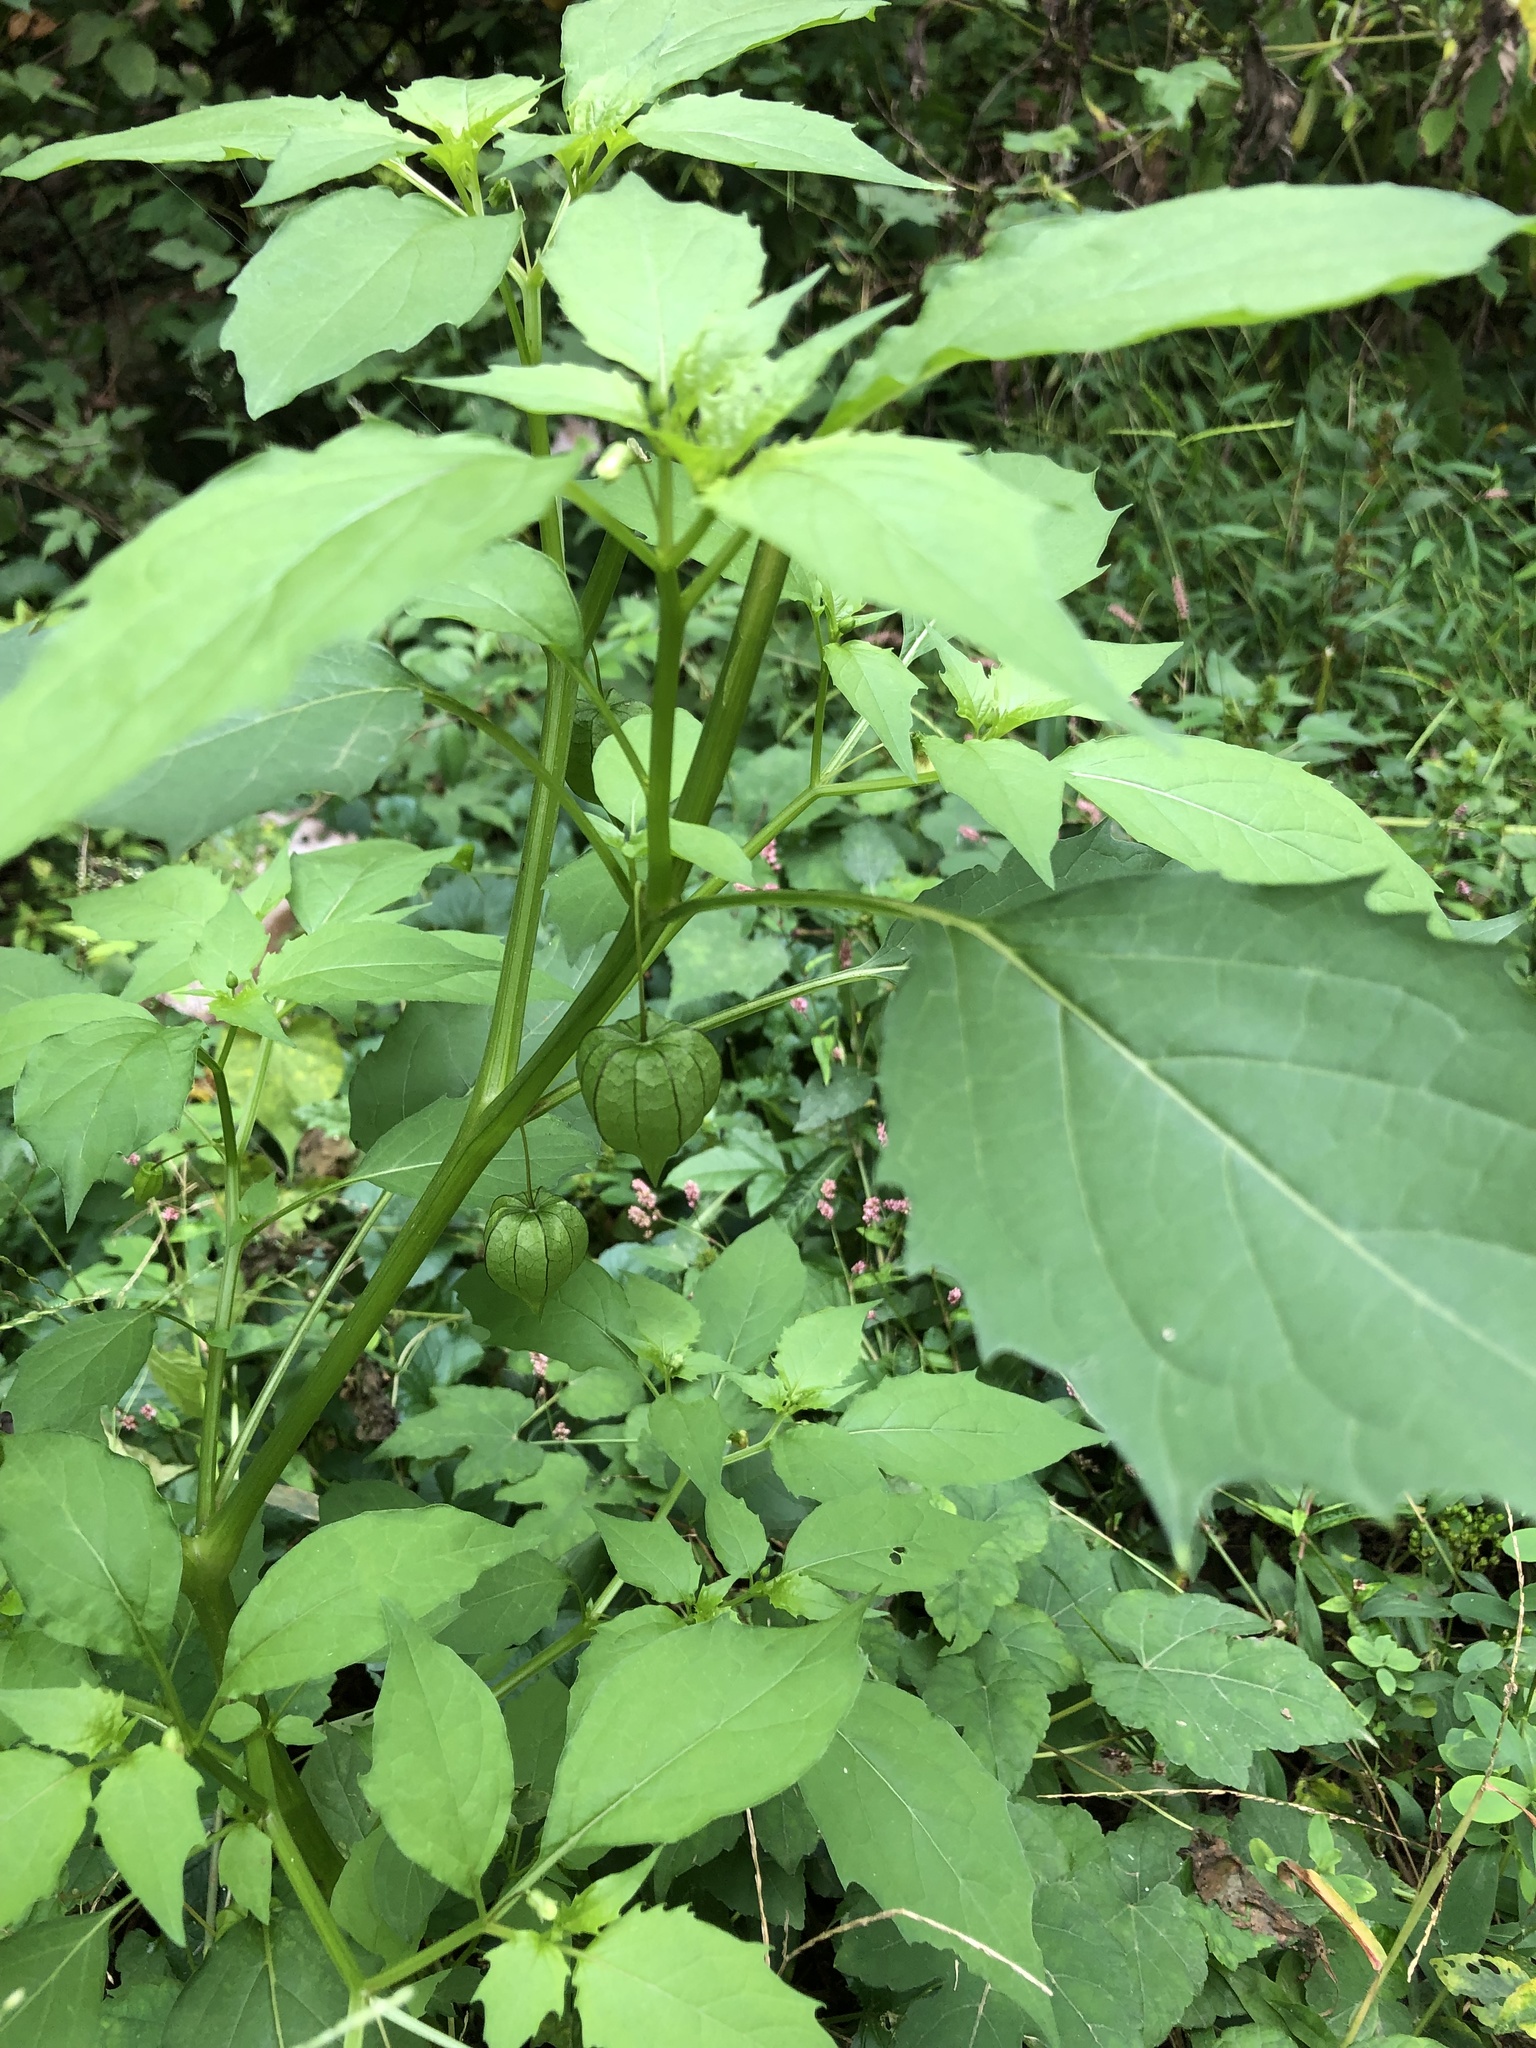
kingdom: Plantae
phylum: Tracheophyta
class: Magnoliopsida
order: Solanales
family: Solanaceae
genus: Physalis
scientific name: Physalis angulata
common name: Angular winter-cherry
